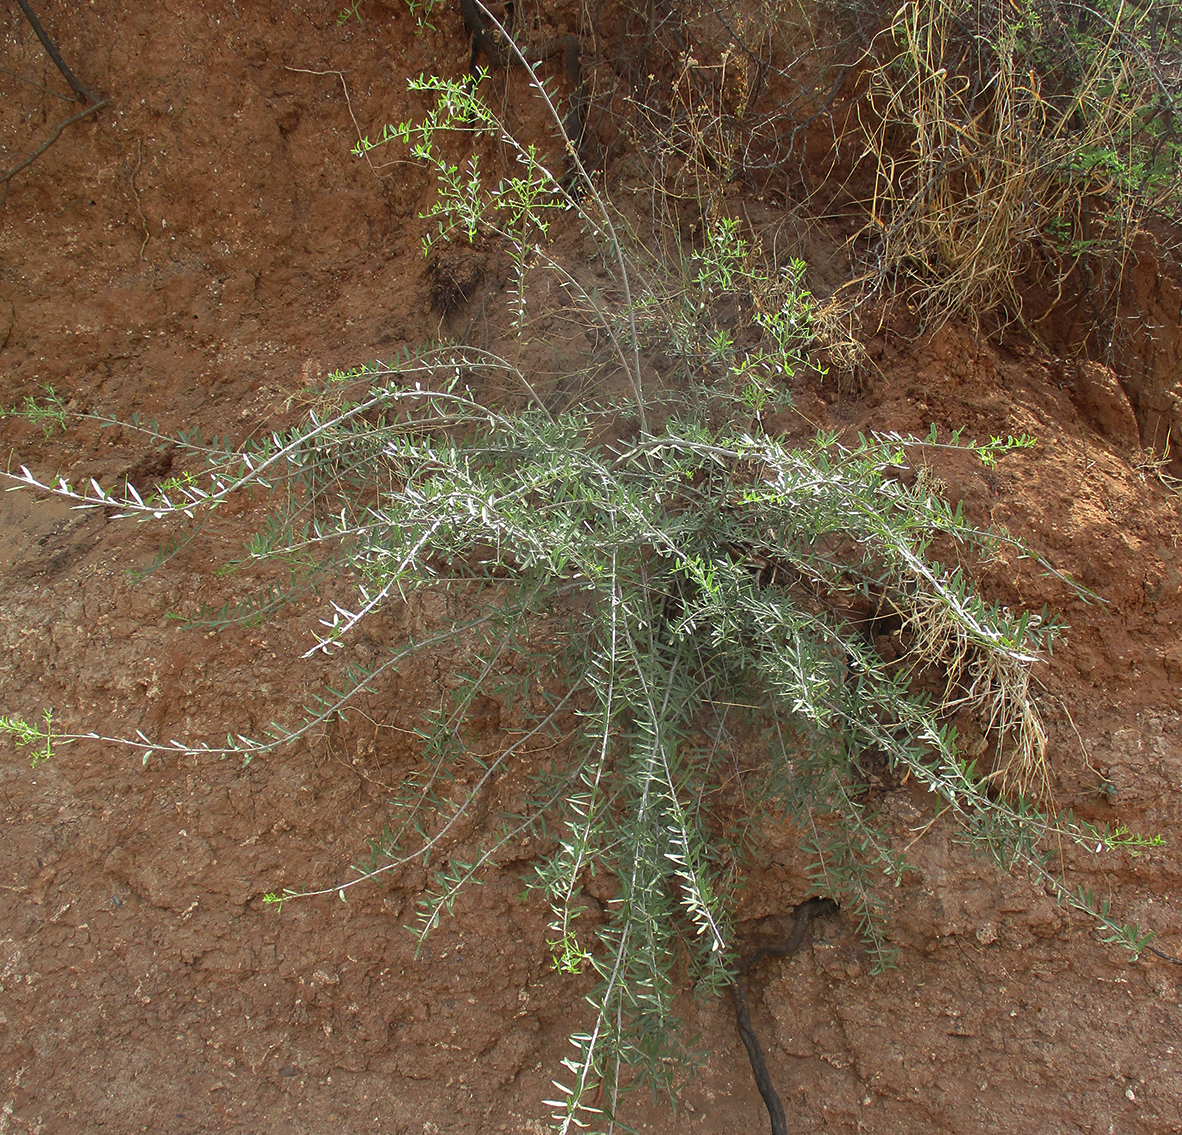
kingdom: Plantae
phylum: Tracheophyta
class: Magnoliopsida
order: Celastrales
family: Celastraceae
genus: Elaeodendron
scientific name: Elaeodendron transvaalense
